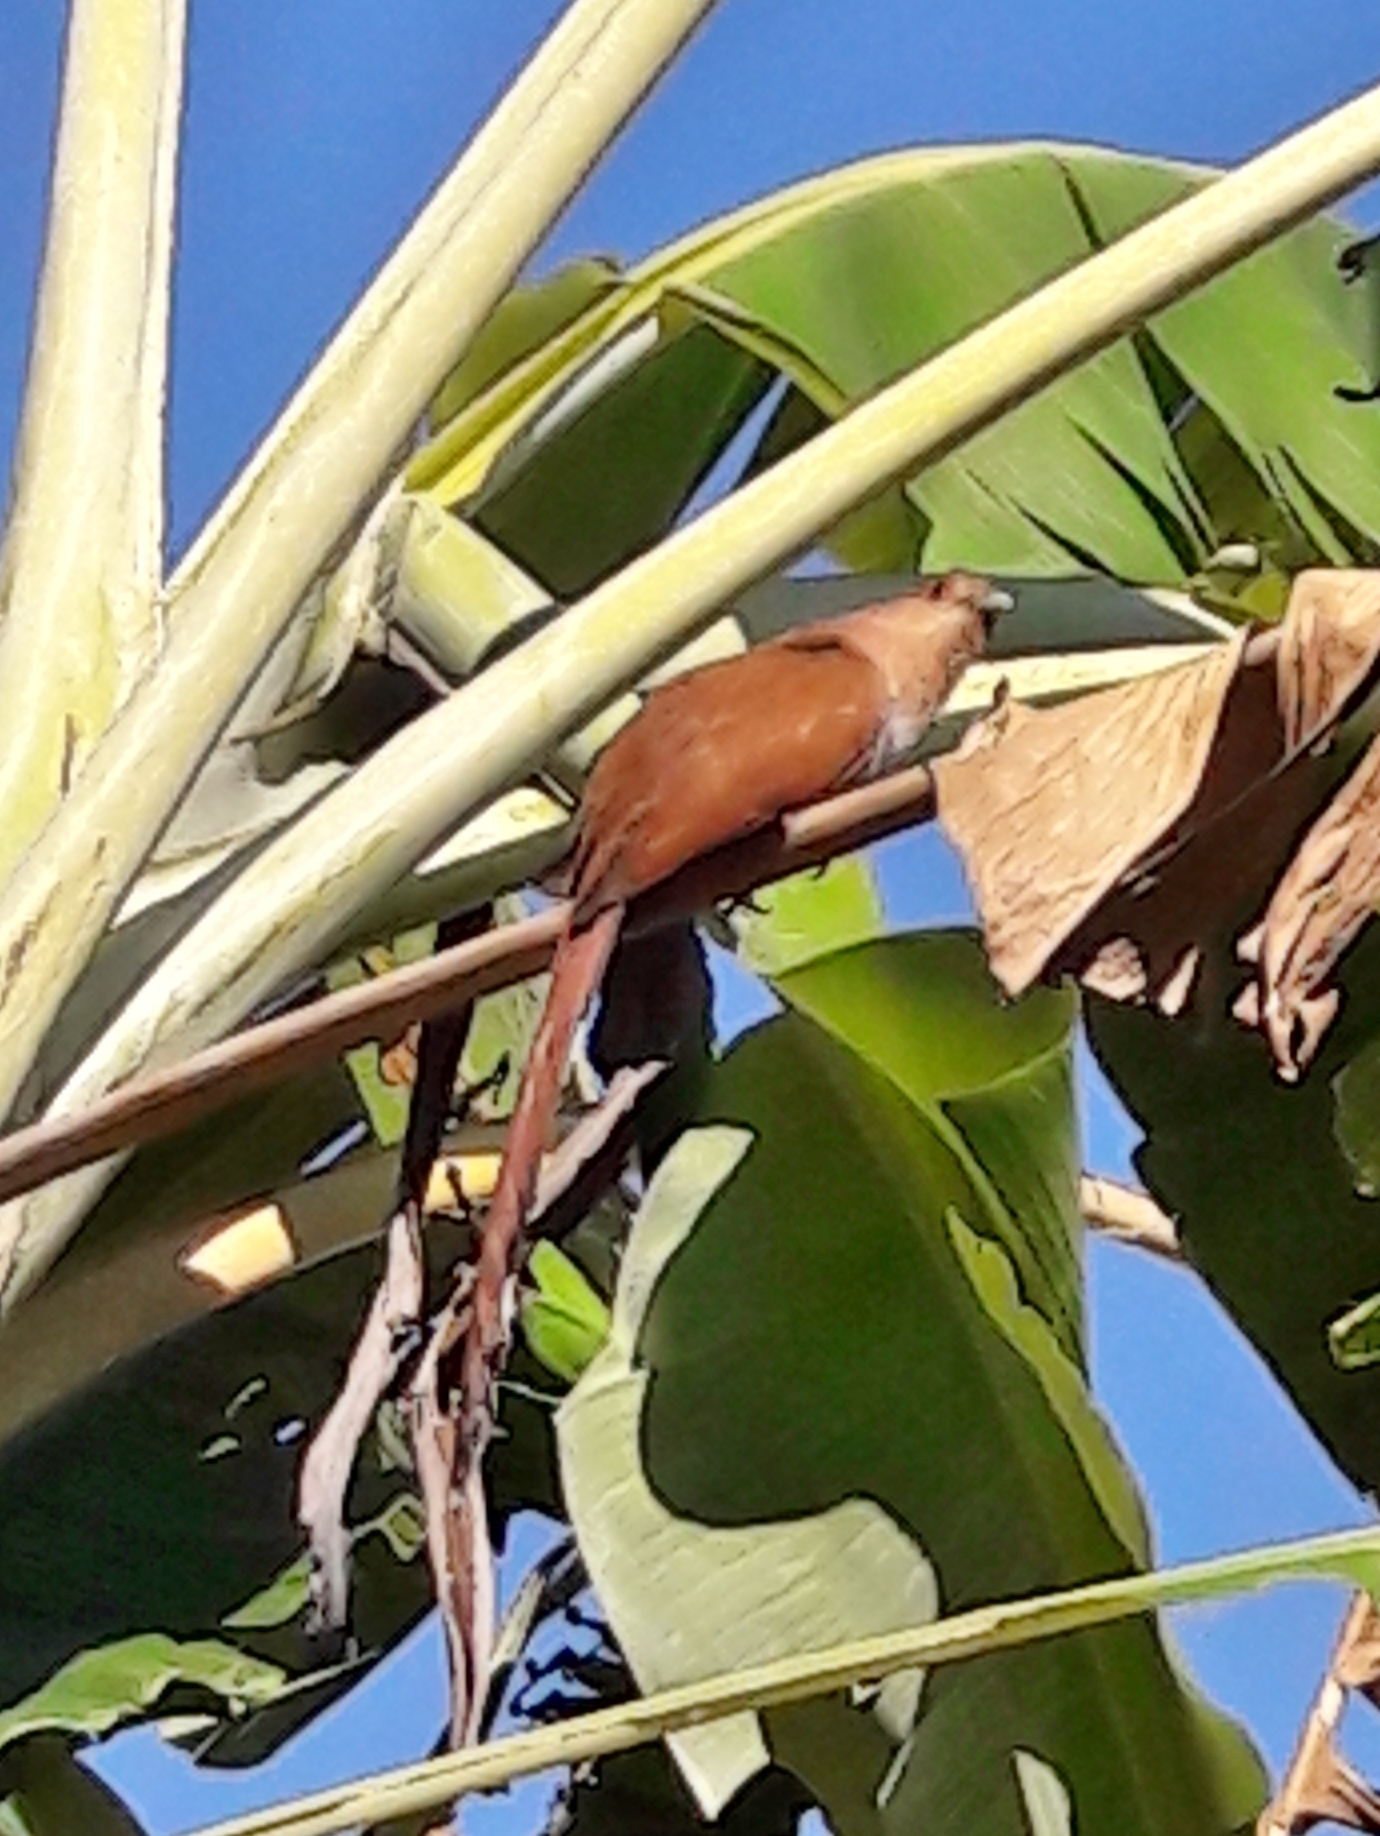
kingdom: Animalia
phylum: Chordata
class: Aves
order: Cuculiformes
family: Cuculidae
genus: Piaya
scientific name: Piaya cayana
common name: Squirrel cuckoo
